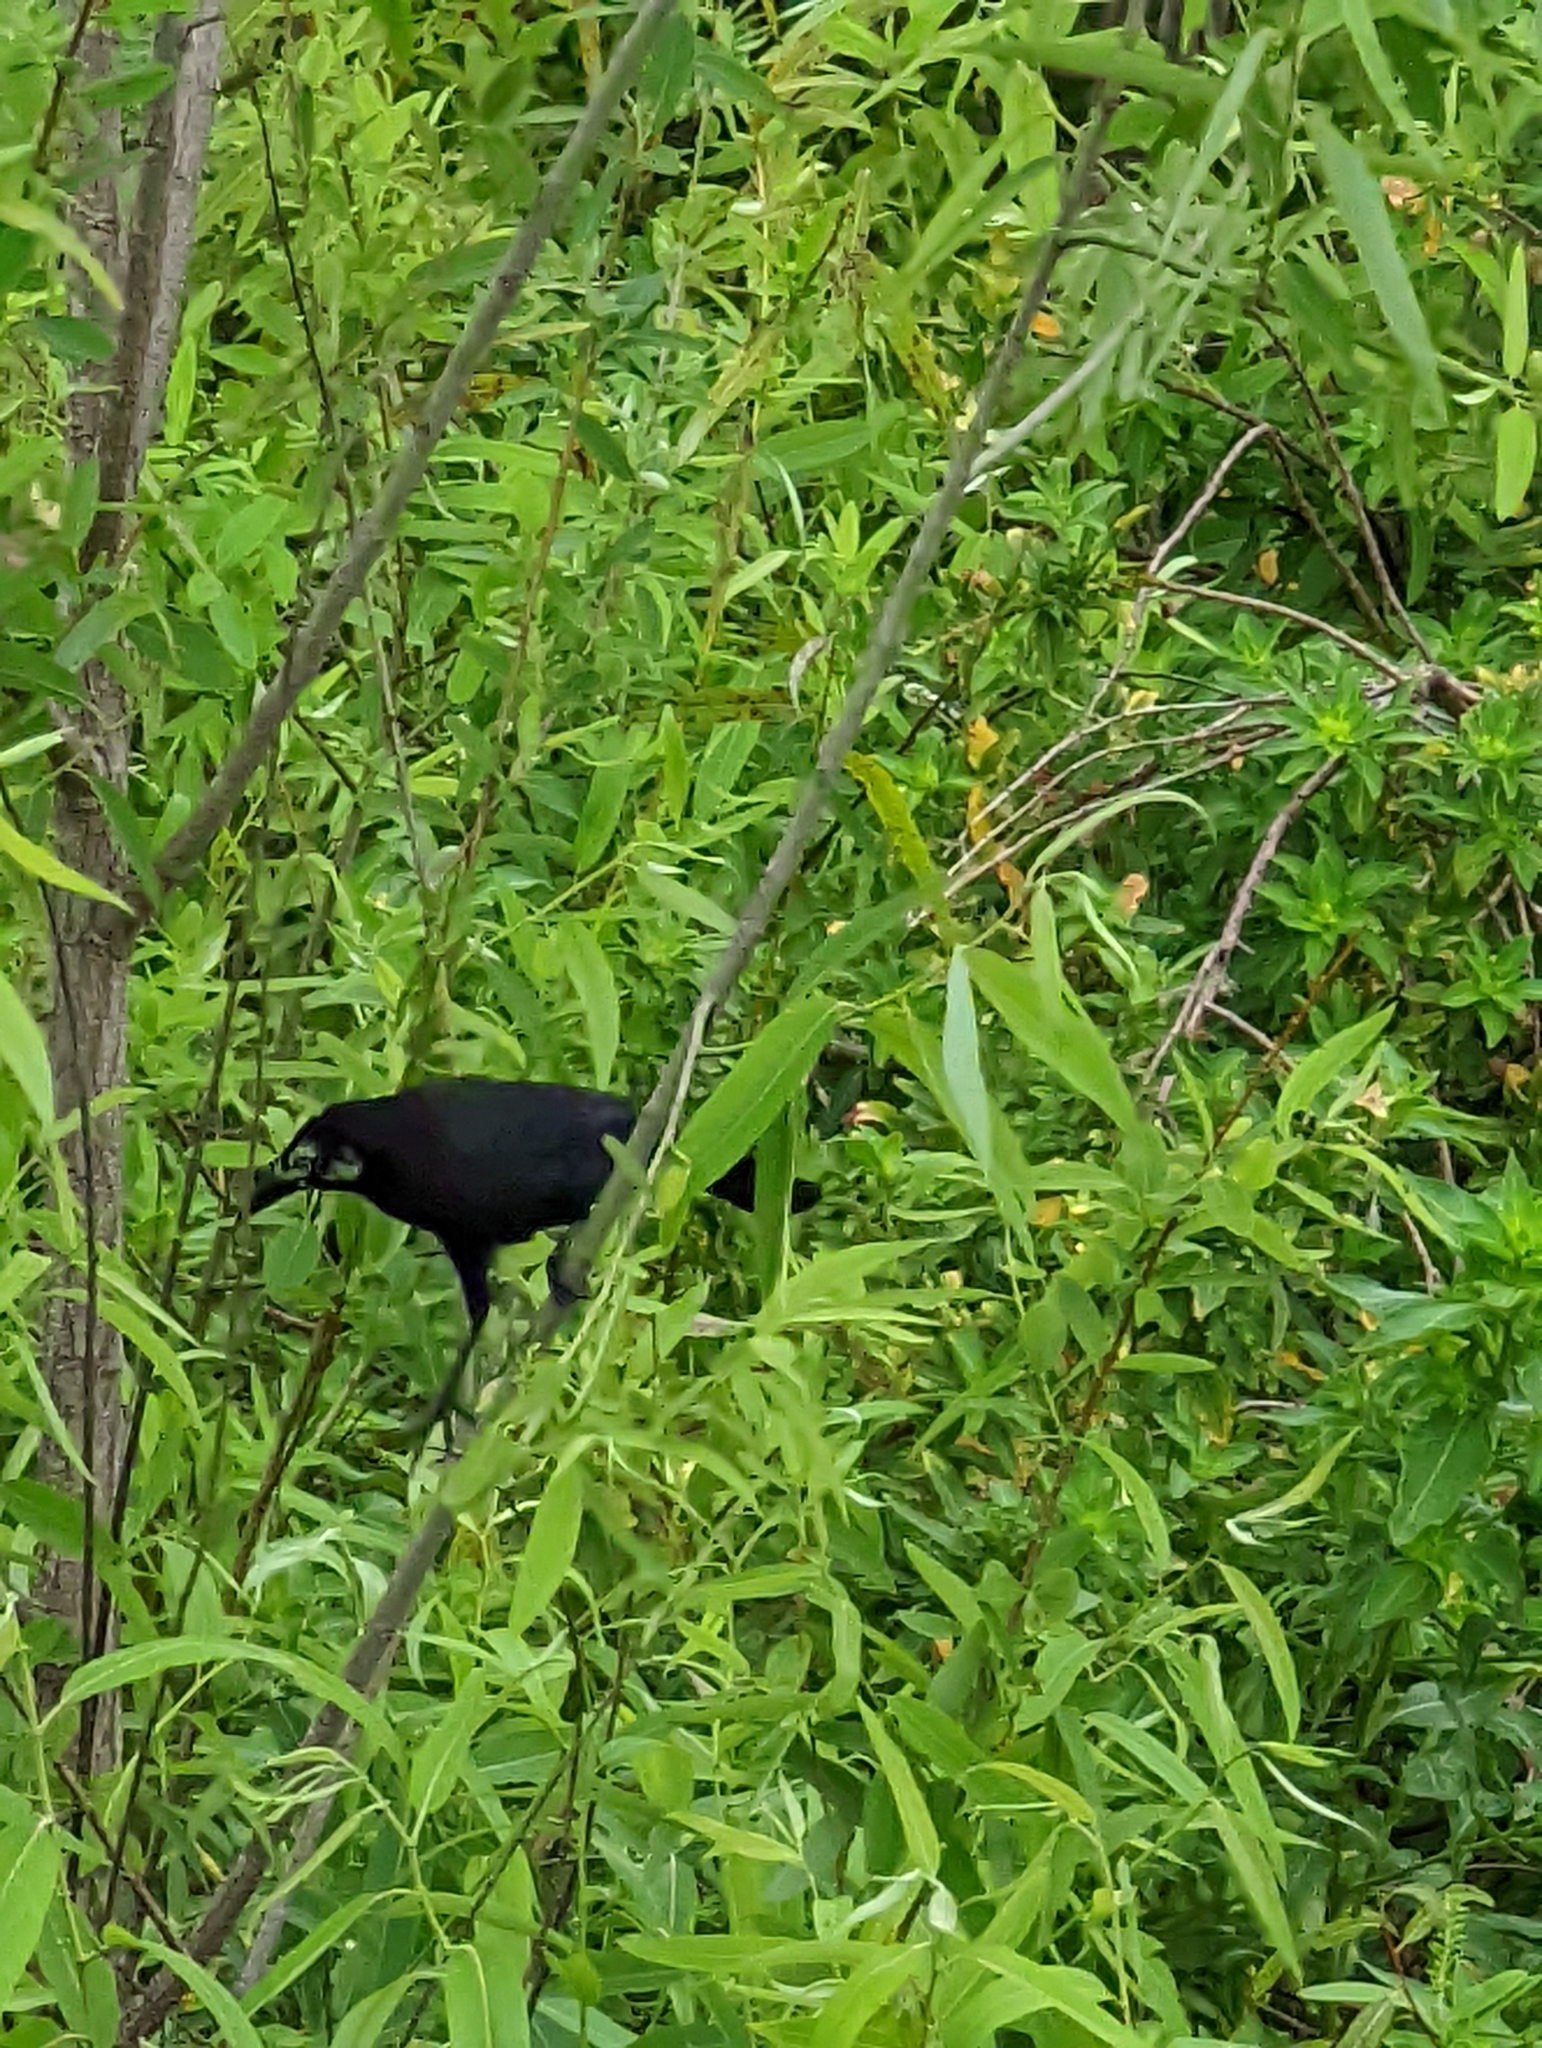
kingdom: Animalia
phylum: Chordata
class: Aves
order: Passeriformes
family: Icteridae
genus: Quiscalus
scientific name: Quiscalus quiscula
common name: Common grackle
